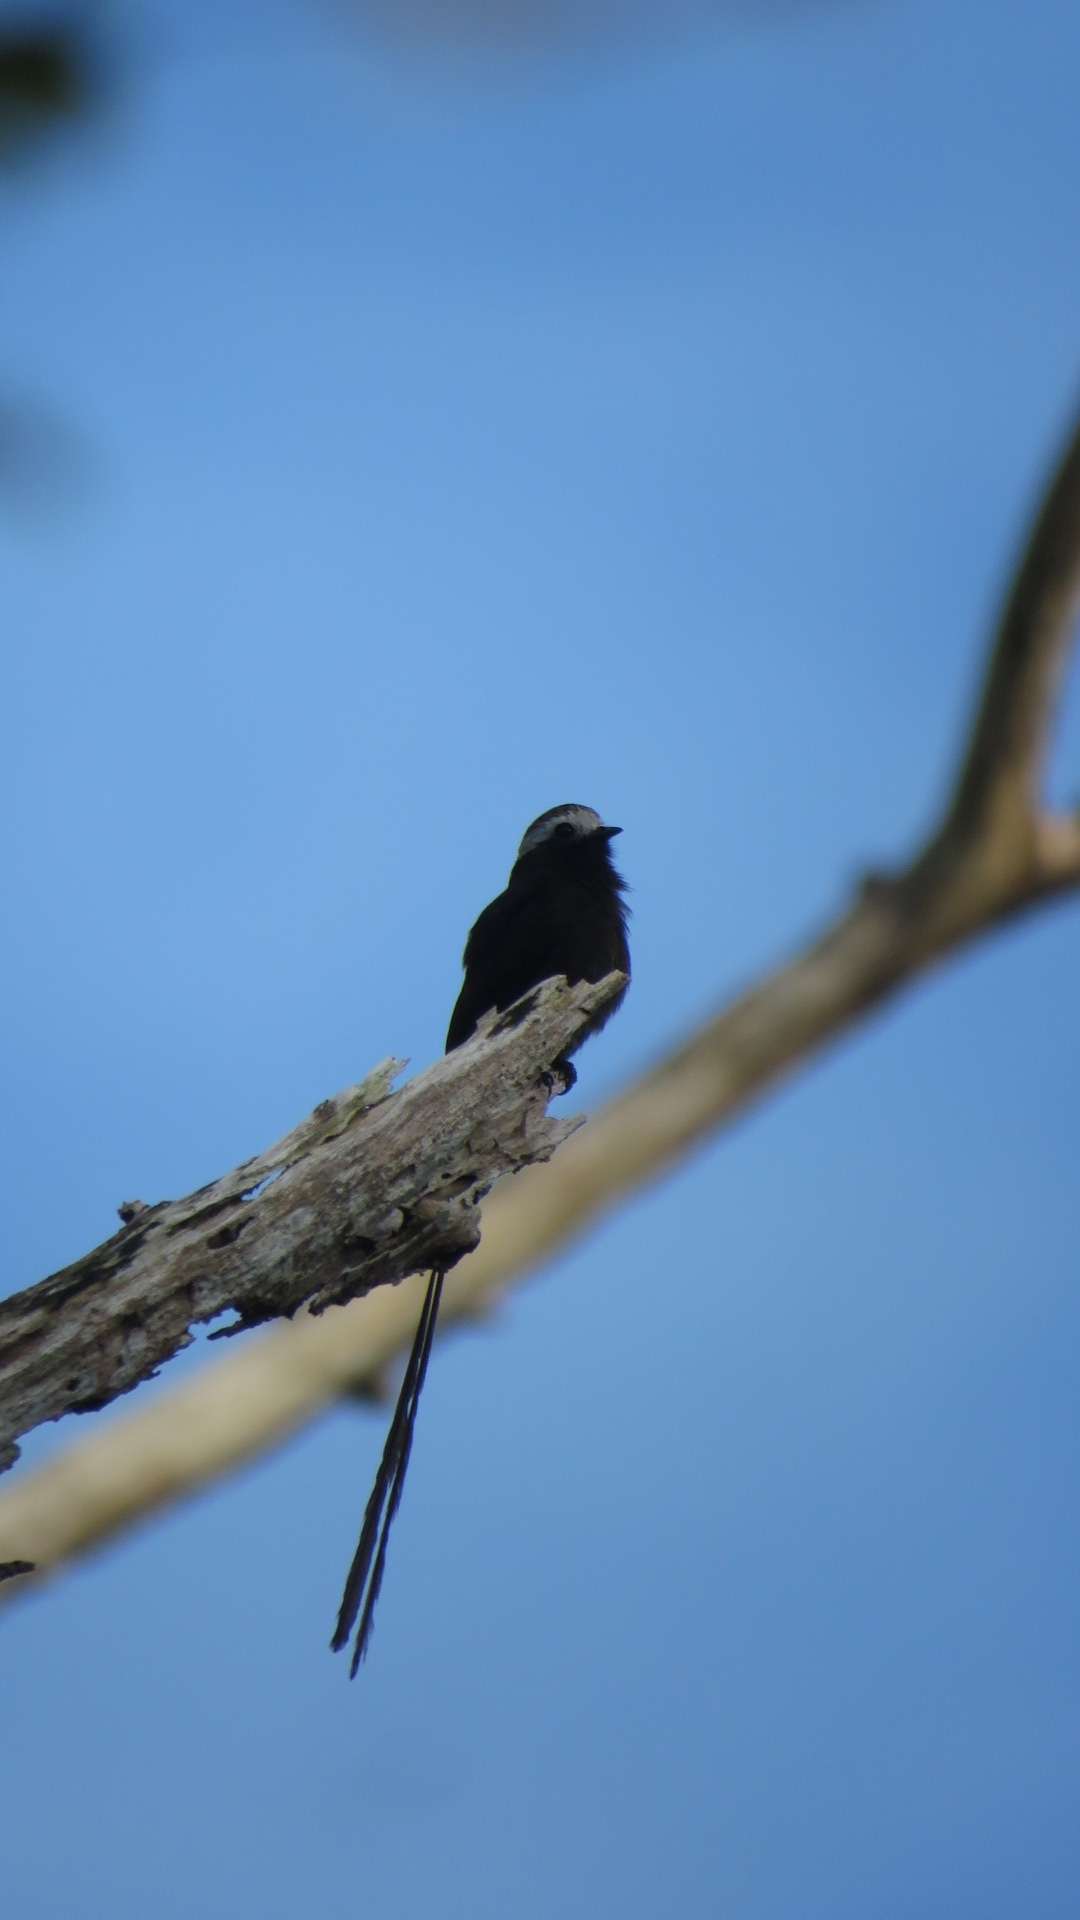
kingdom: Animalia
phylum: Chordata
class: Aves
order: Passeriformes
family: Tyrannidae
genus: Colonia
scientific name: Colonia colonus
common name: Long-tailed tyrant
